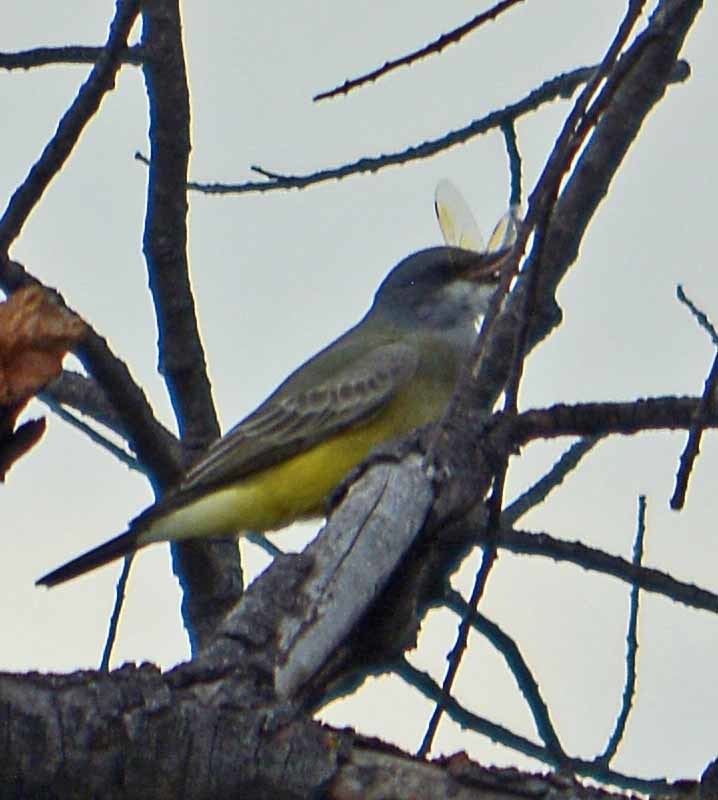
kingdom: Animalia
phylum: Chordata
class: Aves
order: Passeriformes
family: Tyrannidae
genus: Tyrannus
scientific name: Tyrannus vociferans
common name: Cassin's kingbird
